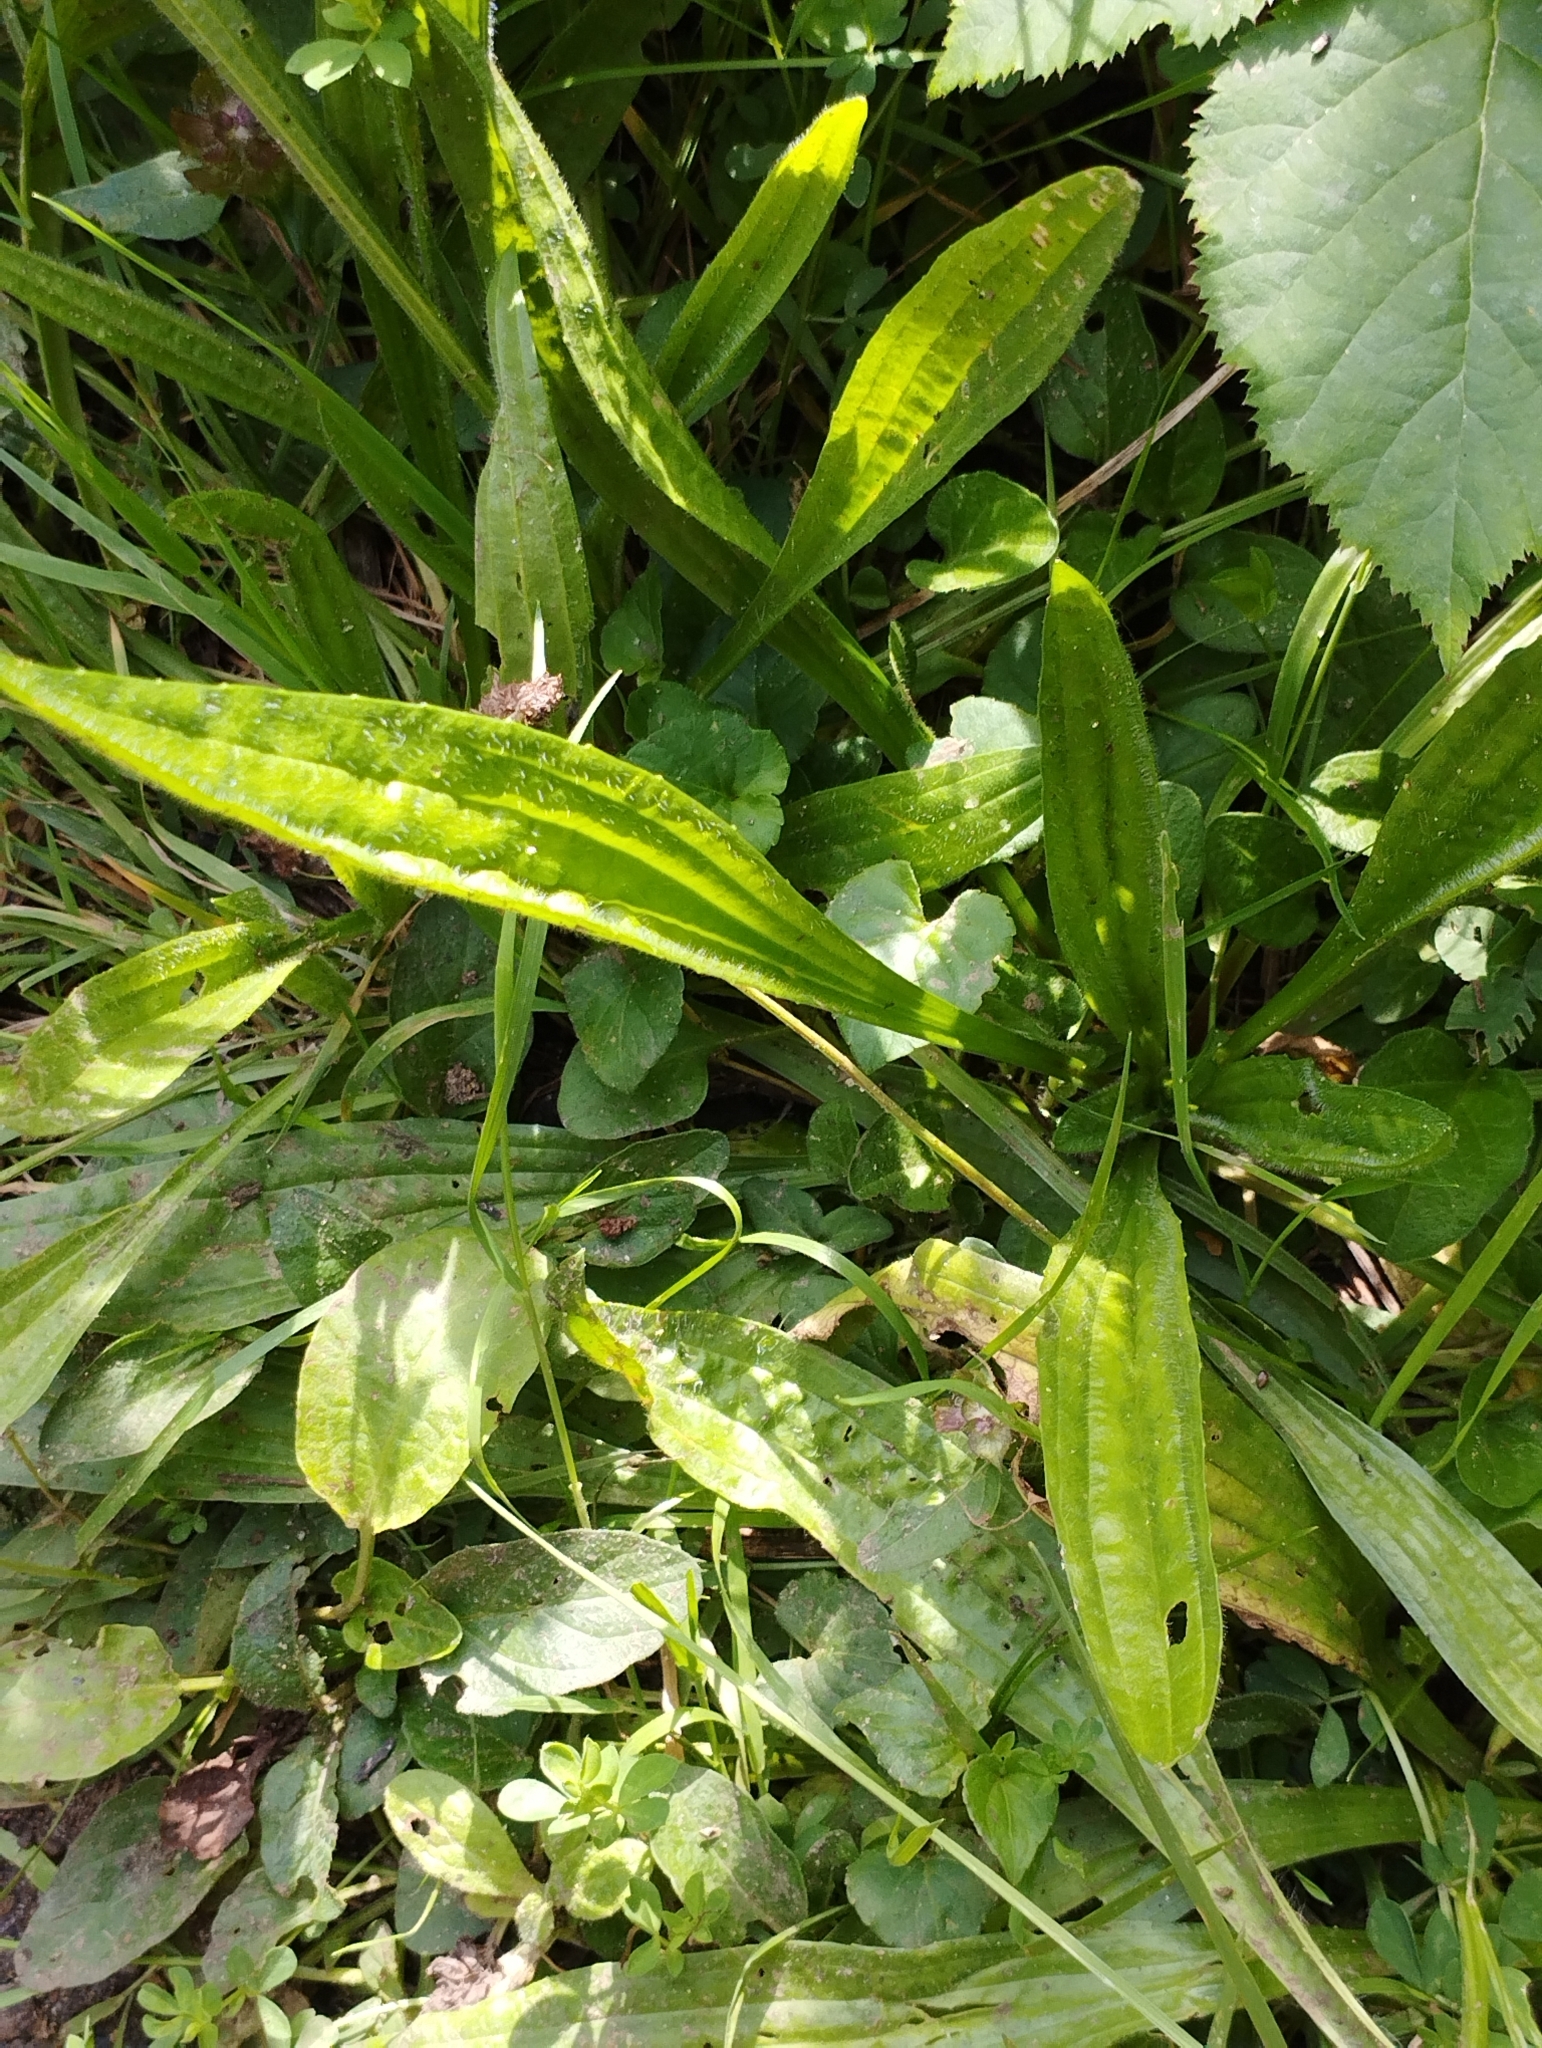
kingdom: Plantae
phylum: Tracheophyta
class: Magnoliopsida
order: Lamiales
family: Plantaginaceae
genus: Plantago
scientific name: Plantago lanceolata
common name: Ribwort plantain
